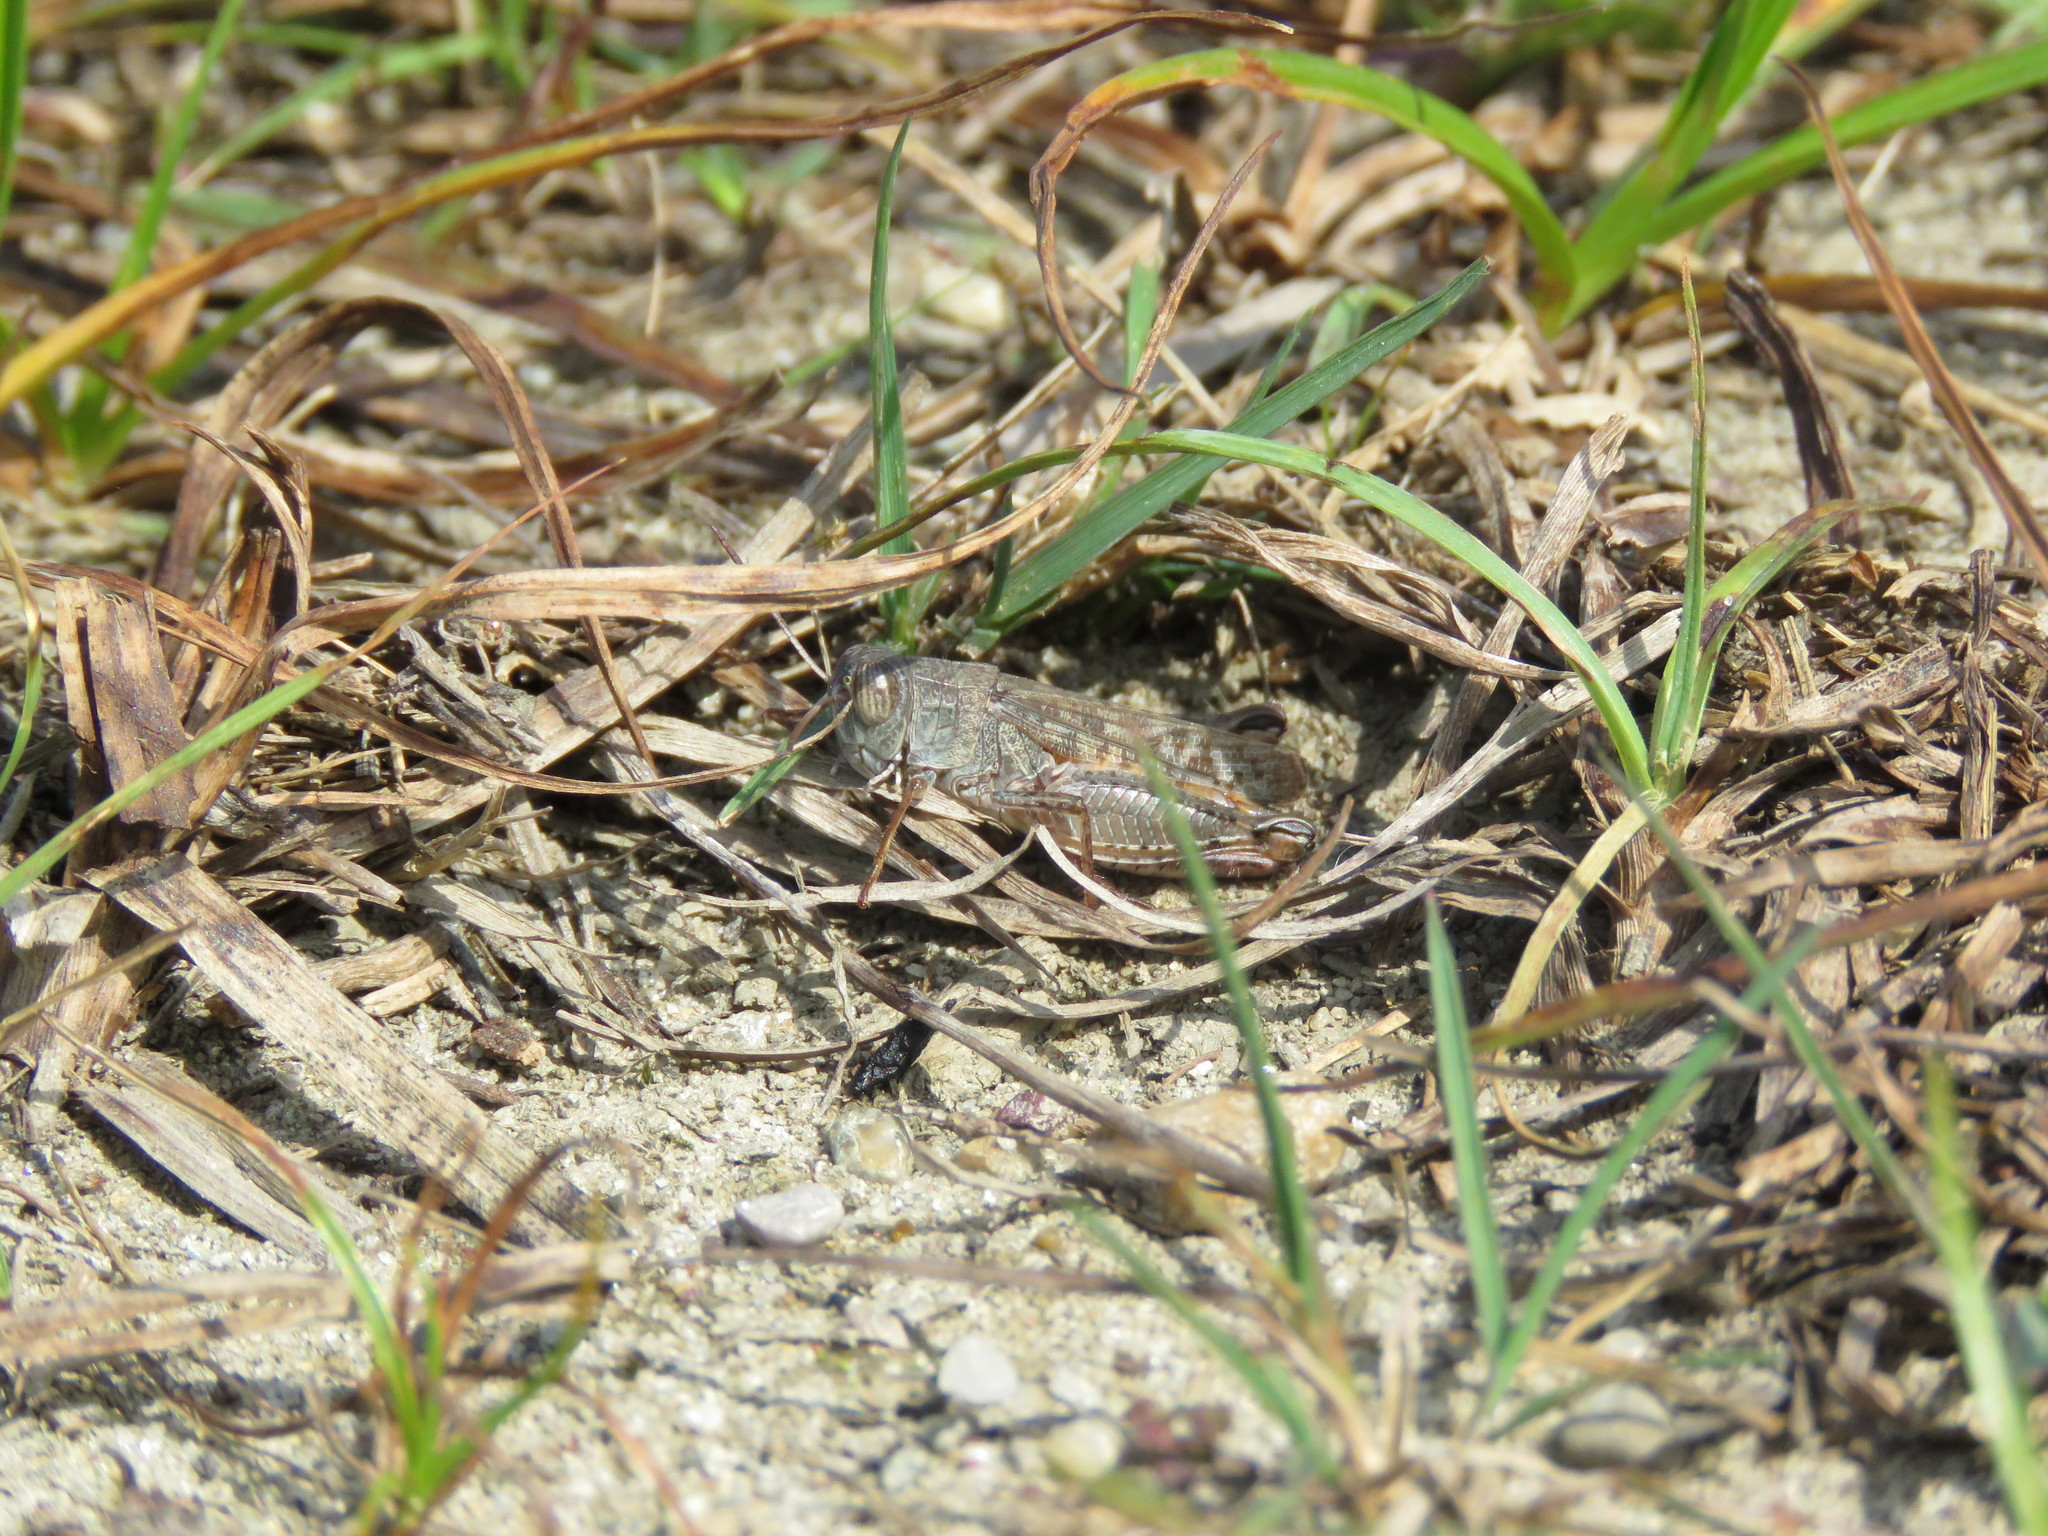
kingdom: Animalia
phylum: Arthropoda
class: Insecta
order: Orthoptera
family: Acrididae
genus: Calliptamus
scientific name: Calliptamus italicus
